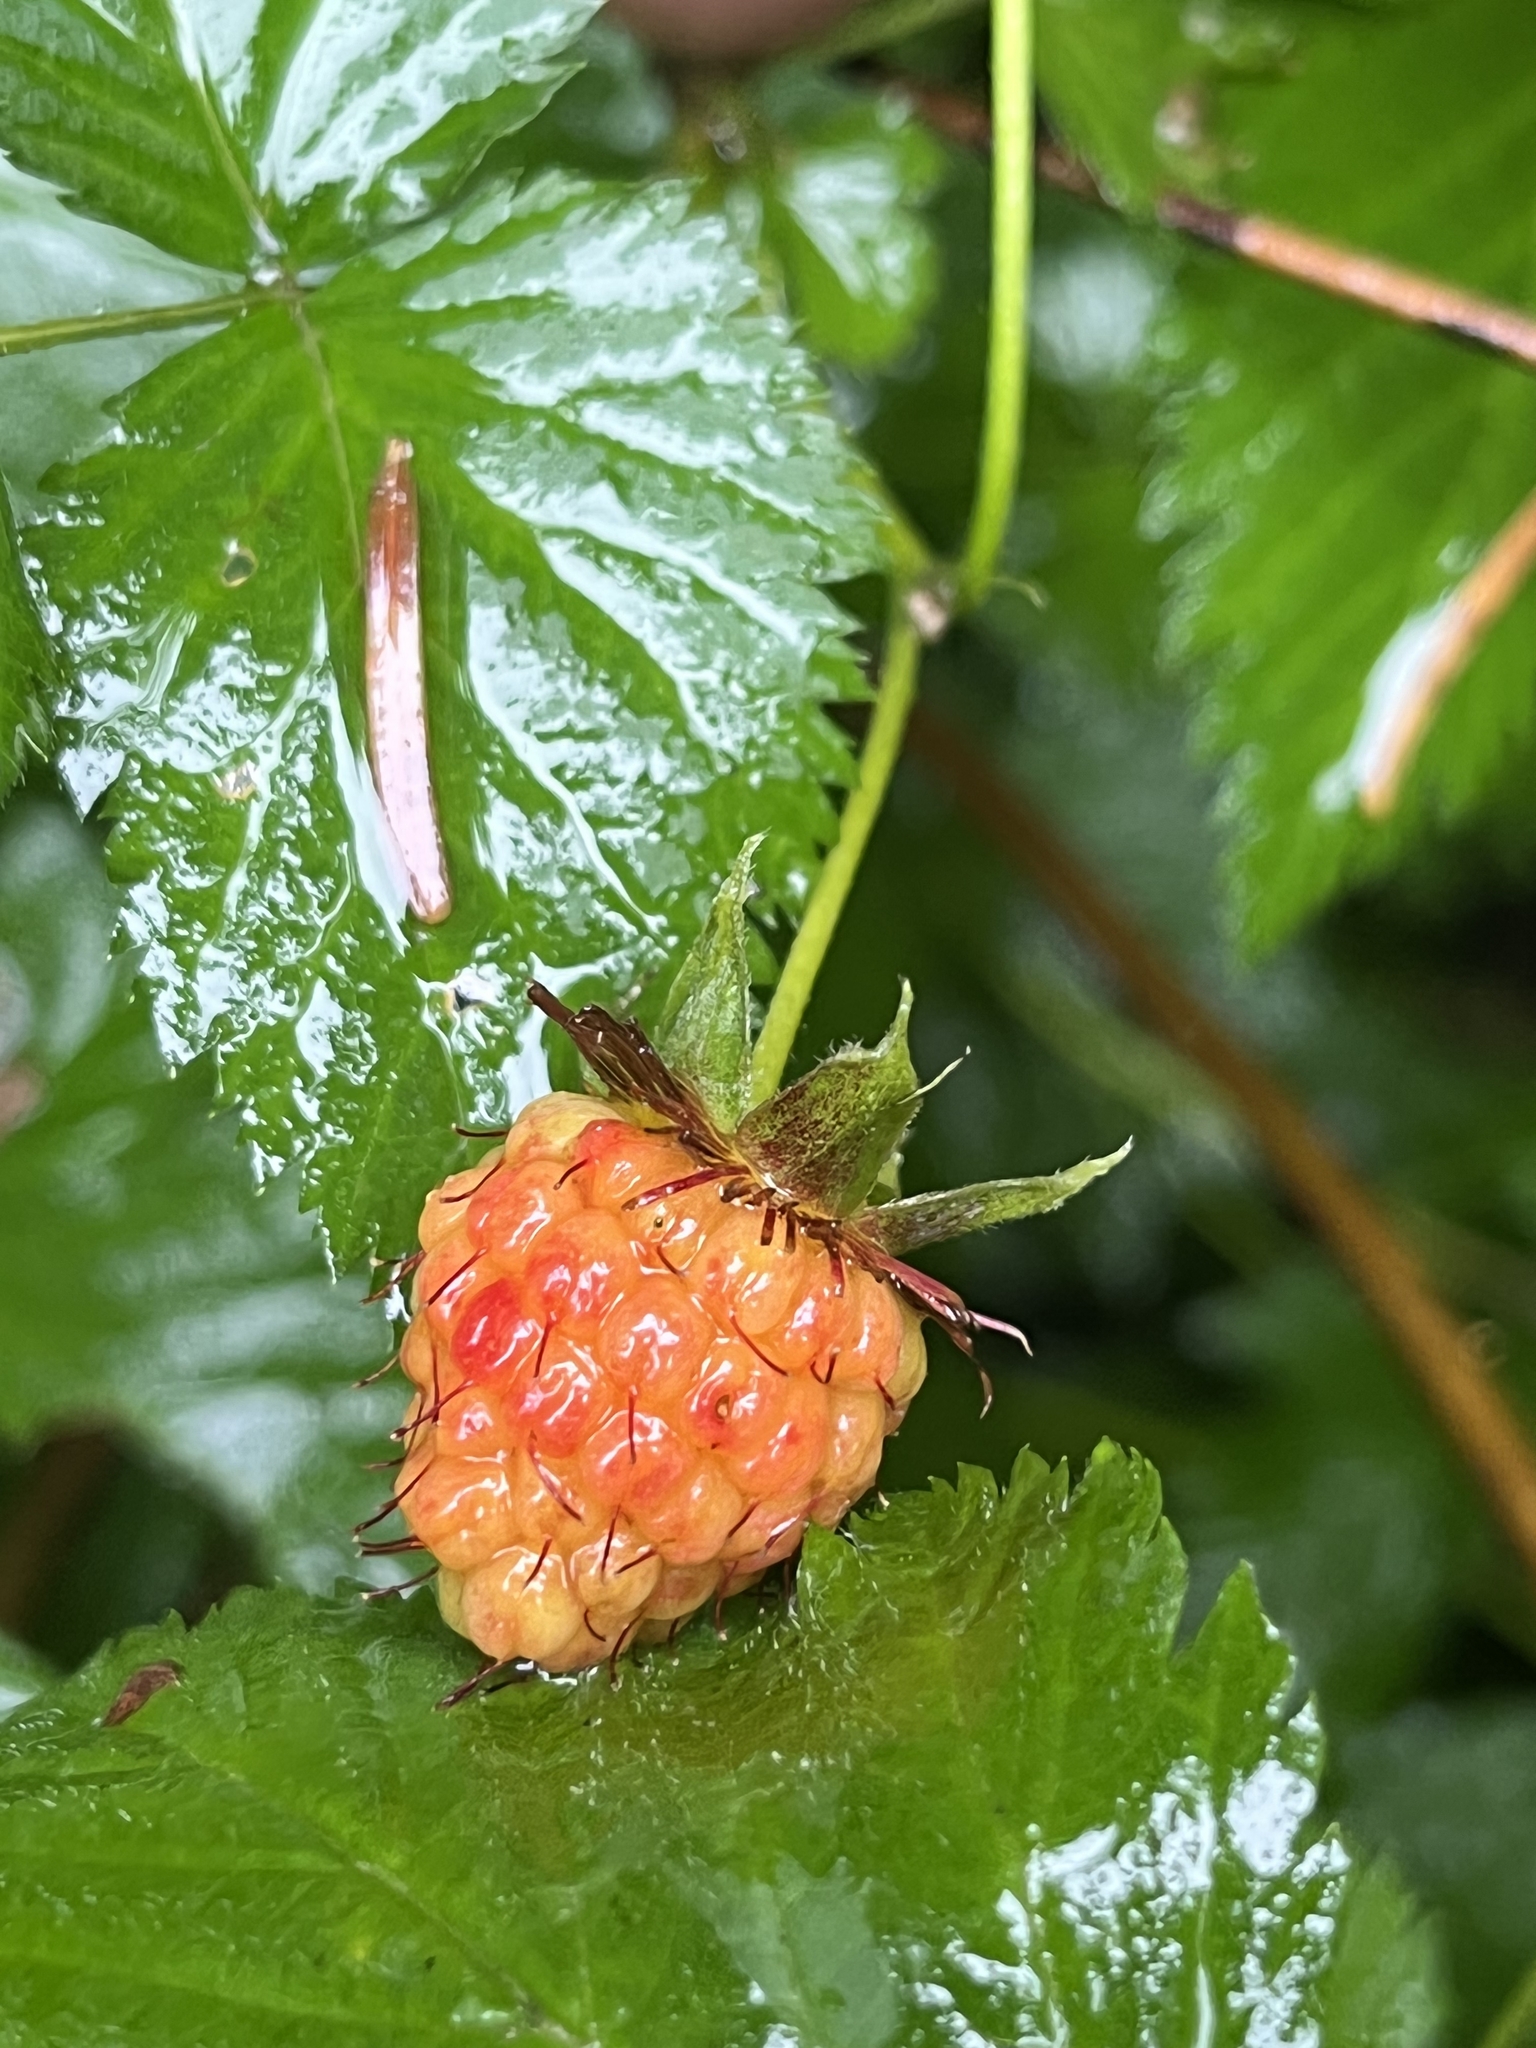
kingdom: Plantae
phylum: Tracheophyta
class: Magnoliopsida
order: Rosales
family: Rosaceae
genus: Rubus
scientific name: Rubus spectabilis
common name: Salmonberry
